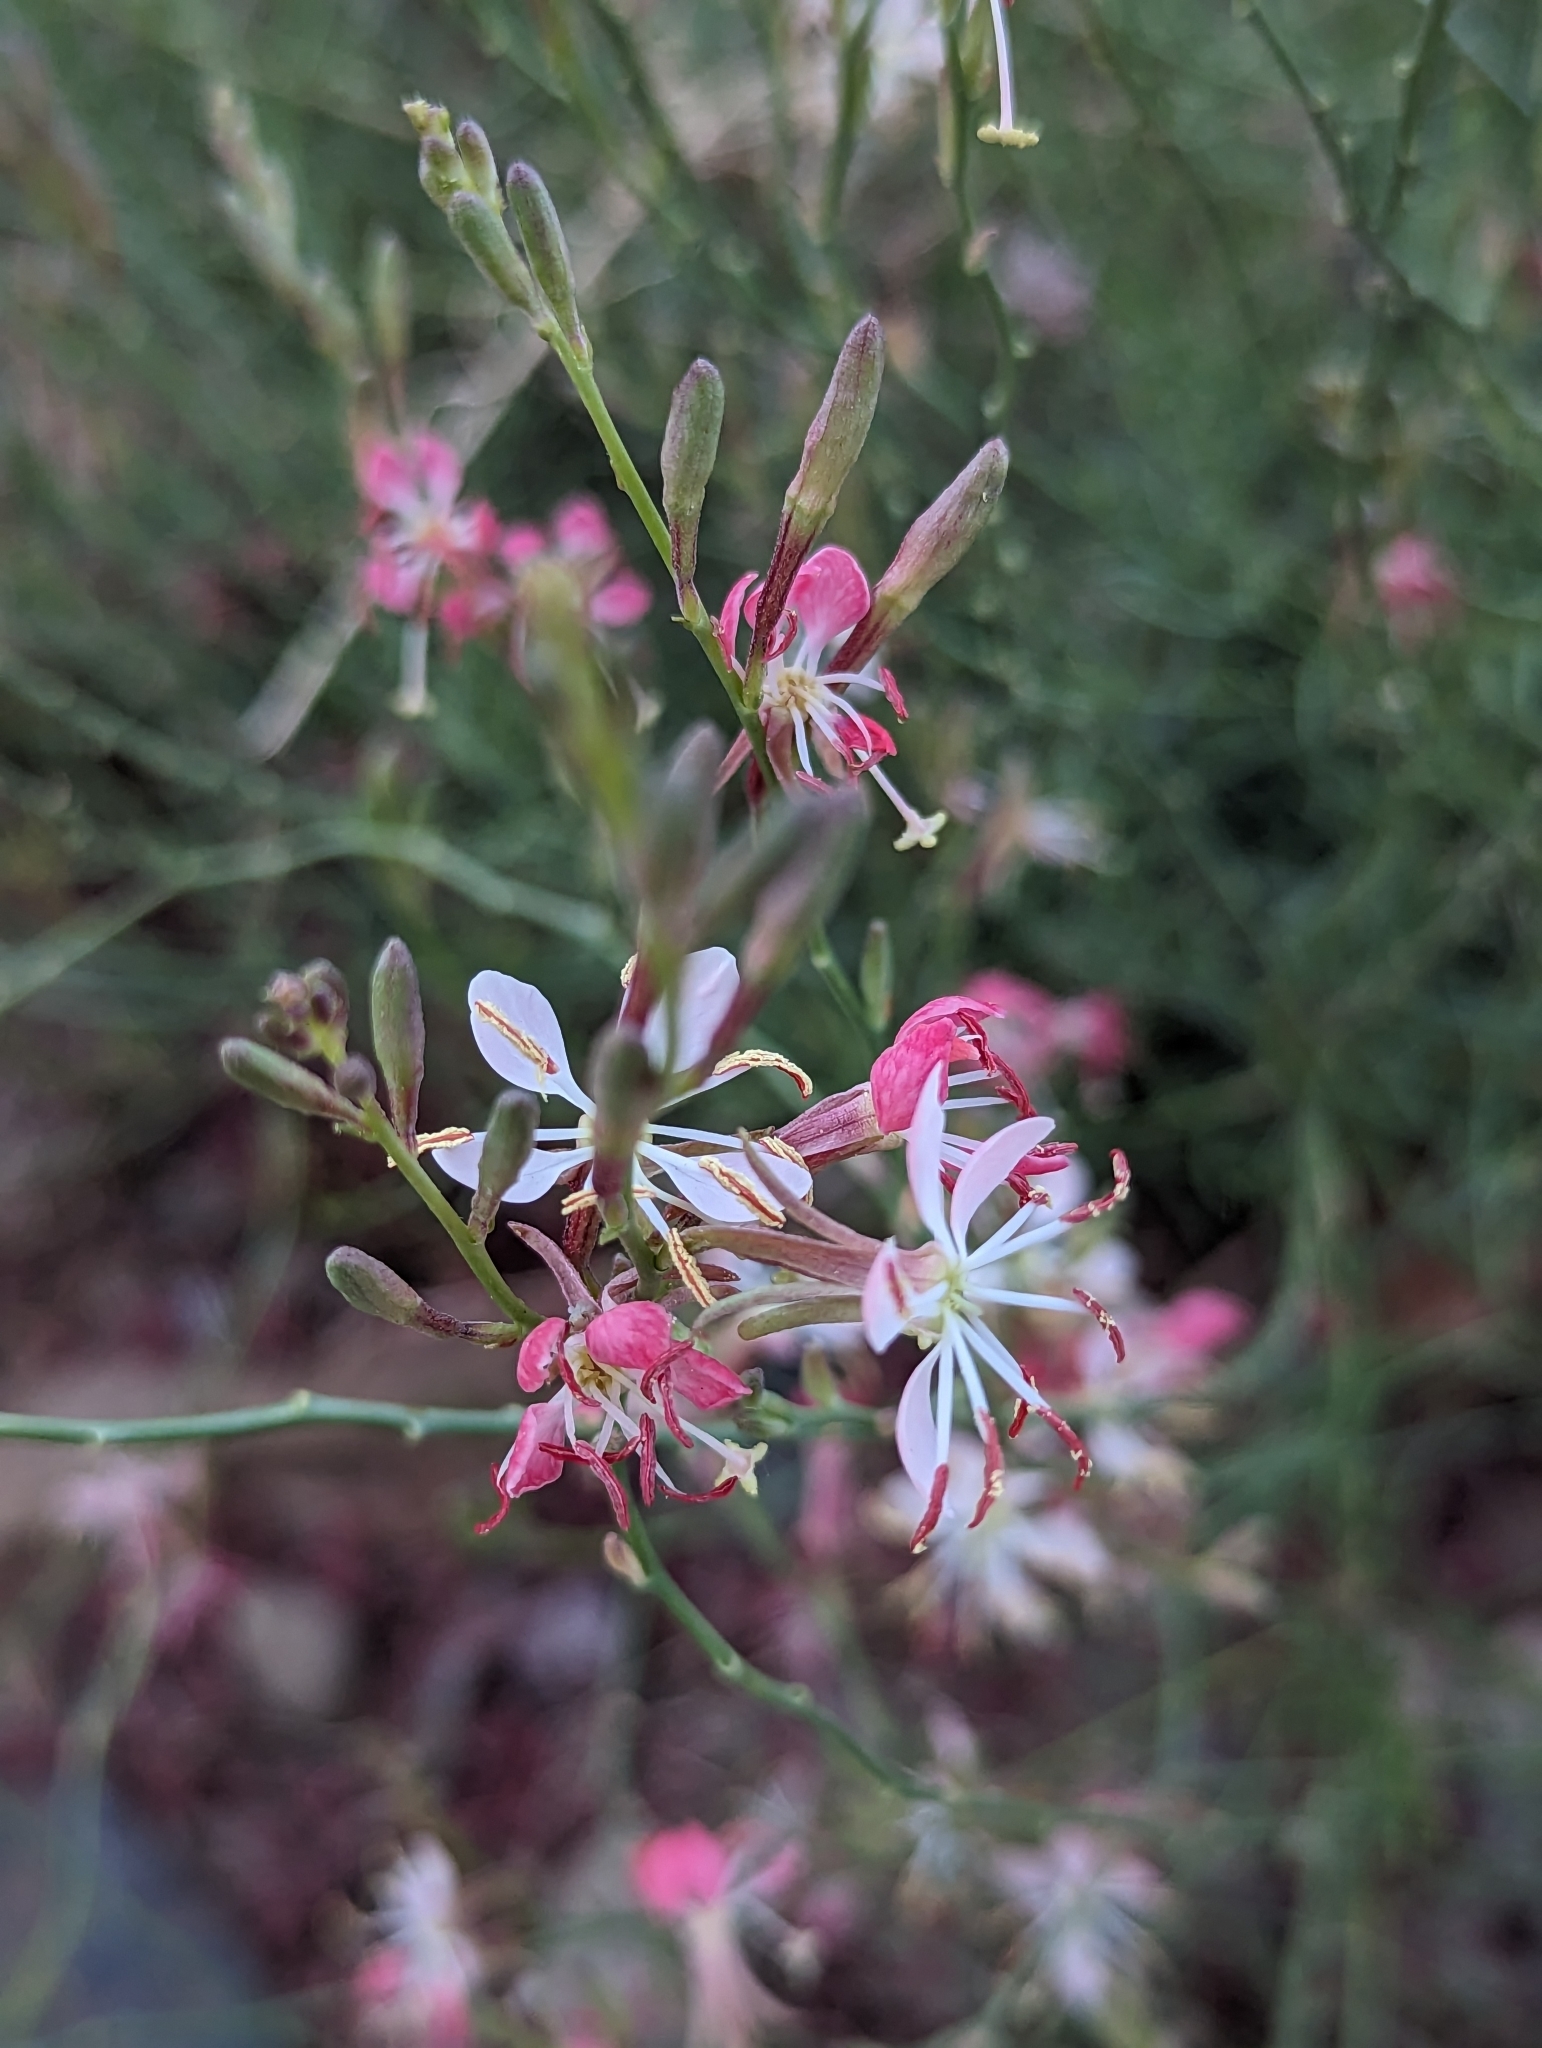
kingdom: Plantae
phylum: Tracheophyta
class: Magnoliopsida
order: Myrtales
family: Onagraceae
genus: Oenothera
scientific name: Oenothera suffrutescens
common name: Scarlet beeblossom
